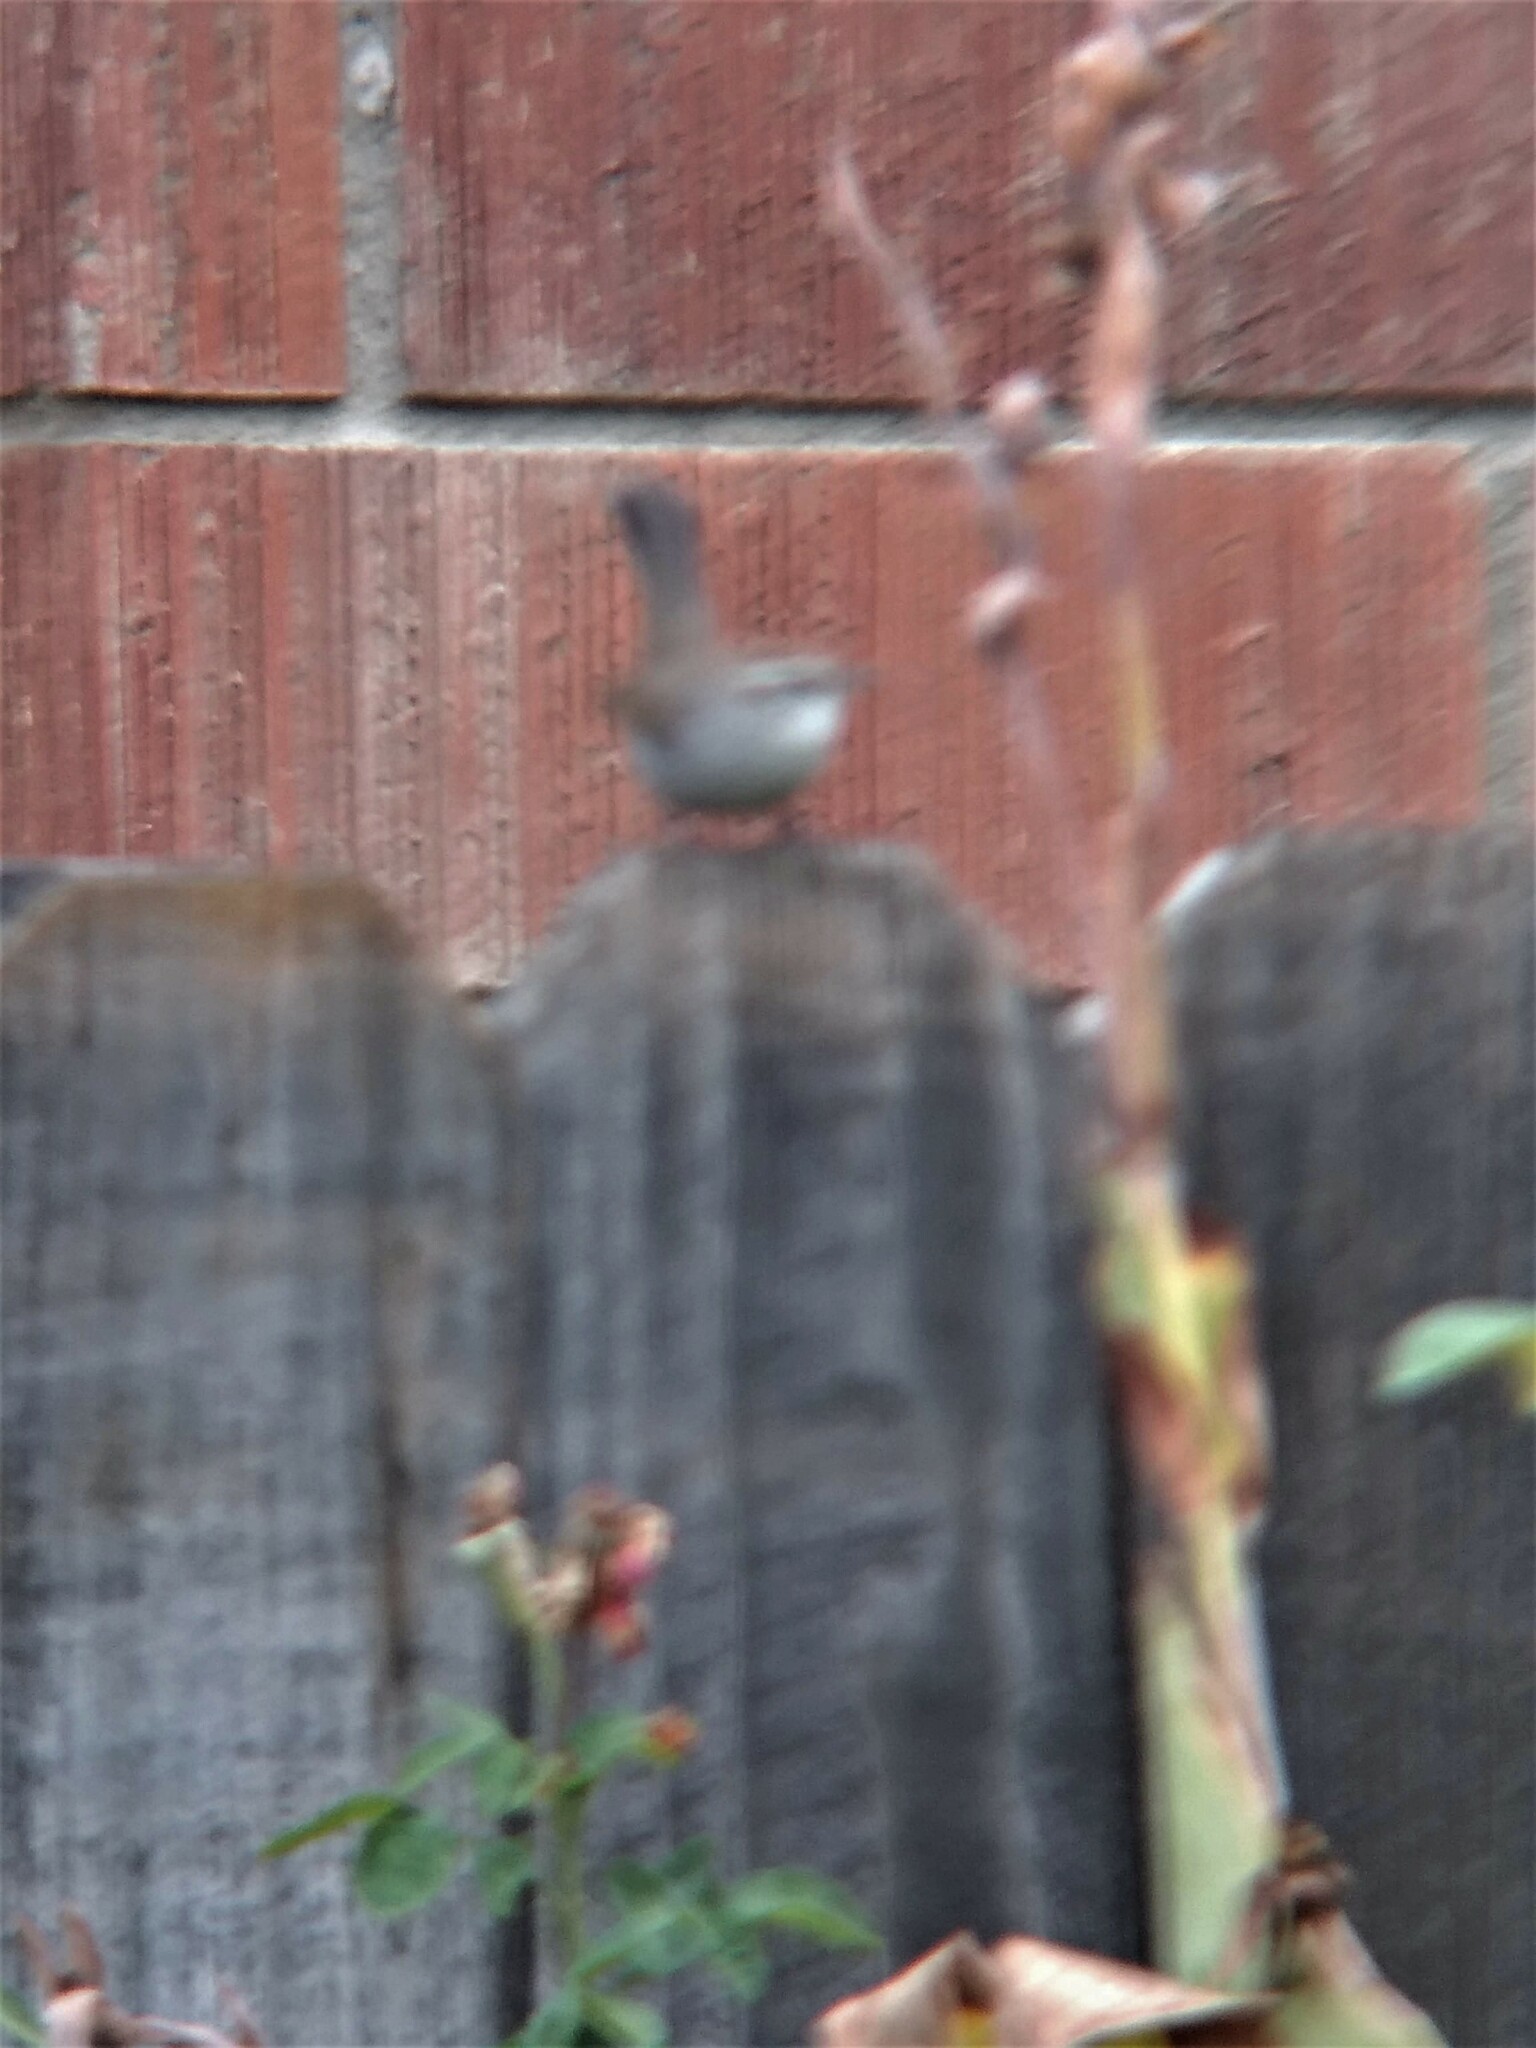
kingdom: Animalia
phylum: Chordata
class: Aves
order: Passeriformes
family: Troglodytidae
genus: Thryomanes
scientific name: Thryomanes bewickii
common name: Bewick's wren
